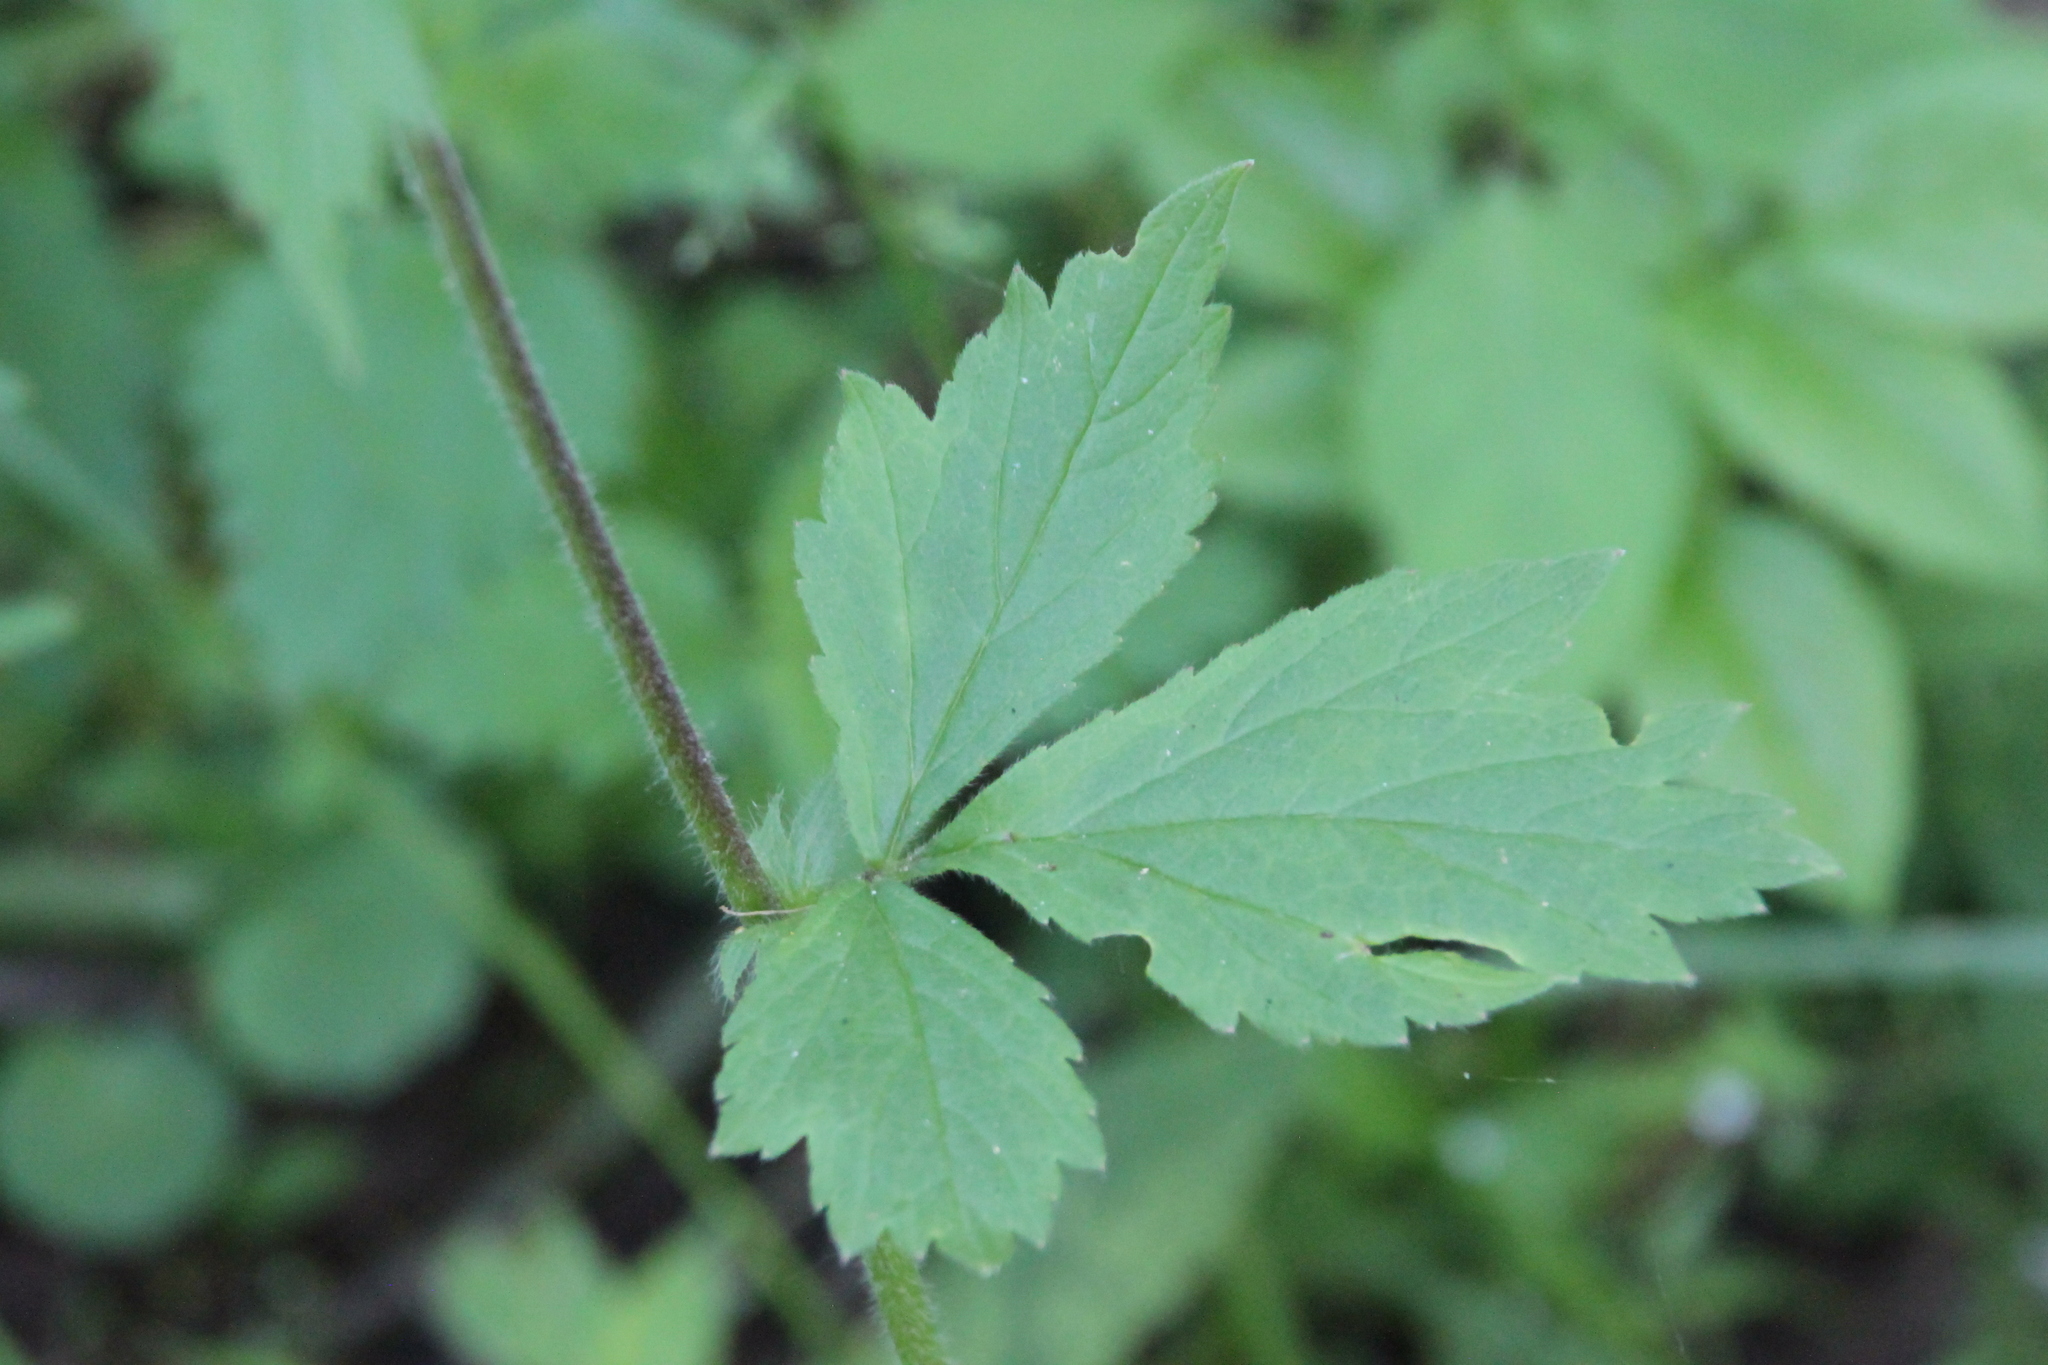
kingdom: Plantae
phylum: Tracheophyta
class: Magnoliopsida
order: Rosales
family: Rosaceae
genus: Geum
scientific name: Geum rivale
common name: Water avens
